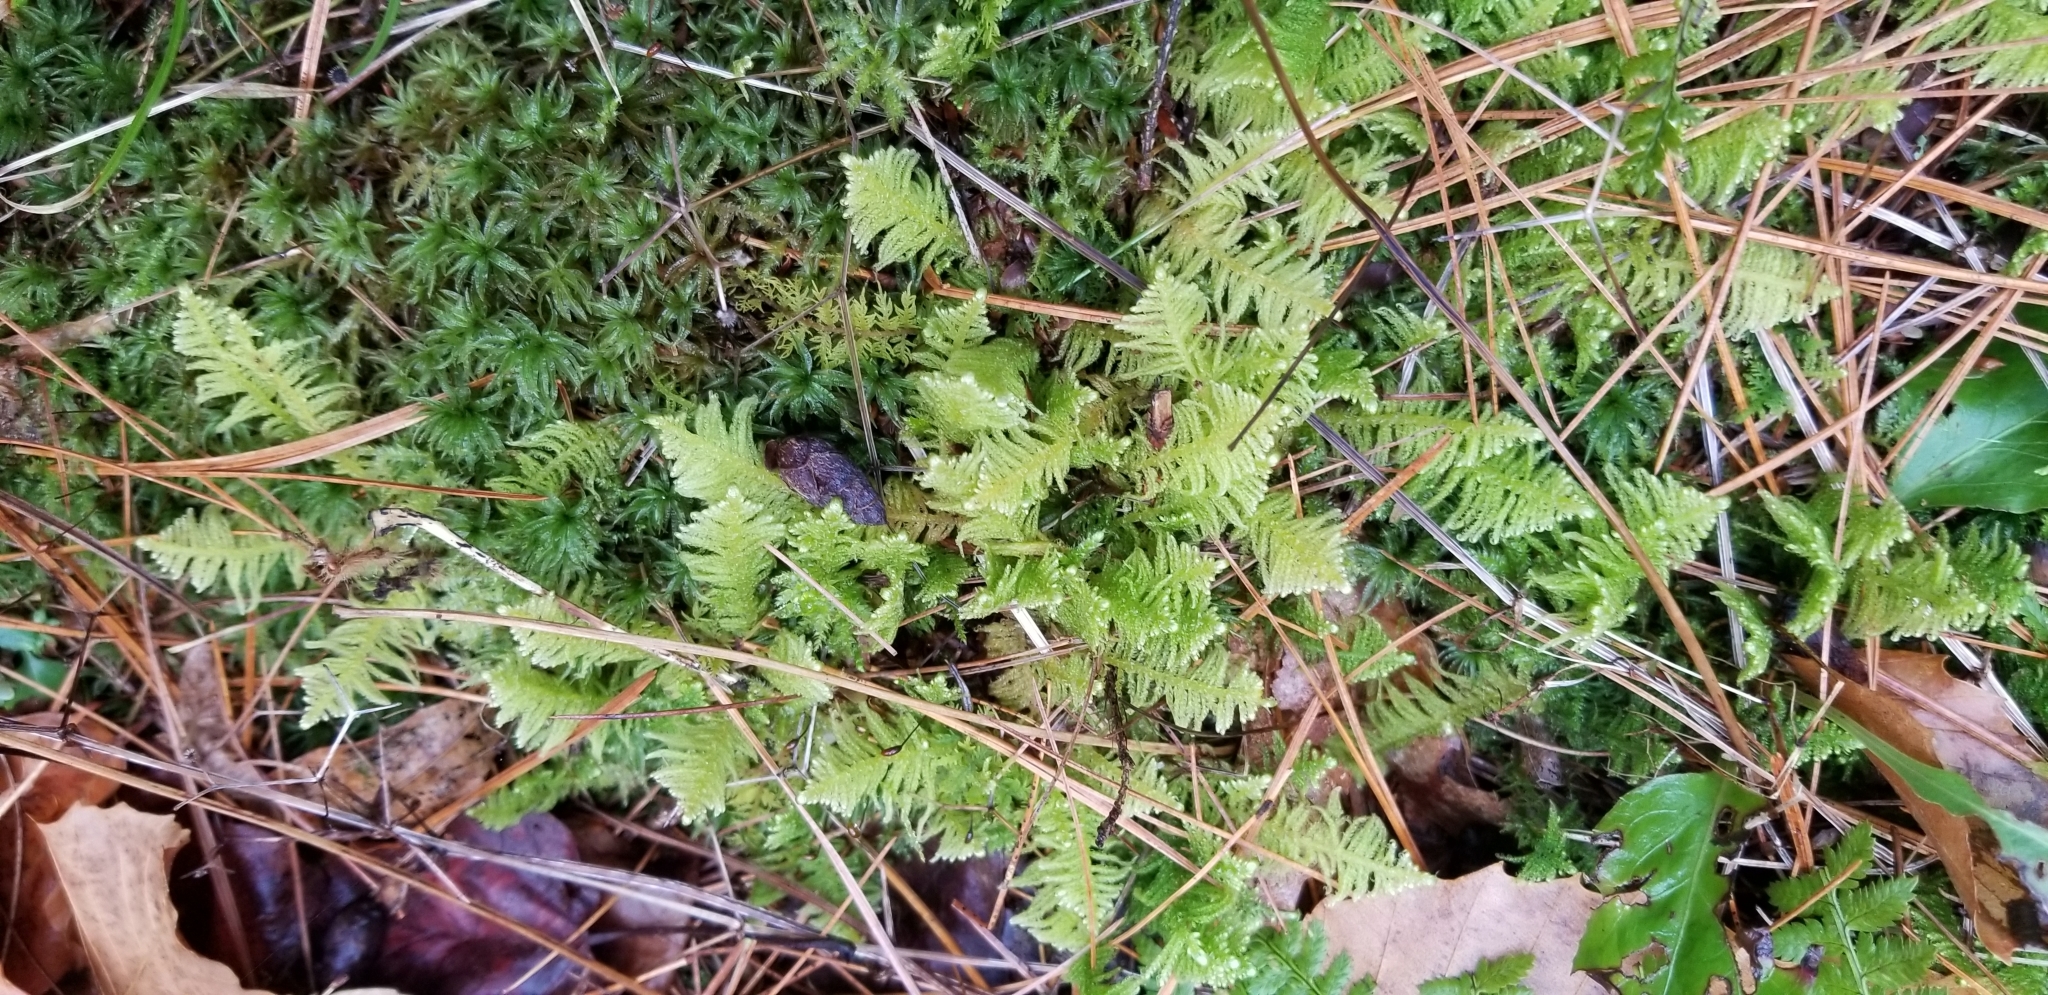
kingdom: Plantae
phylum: Bryophyta
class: Bryopsida
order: Hypnales
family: Pylaisiaceae
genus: Ptilium
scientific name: Ptilium crista-castrensis
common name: Knight's plume moss
